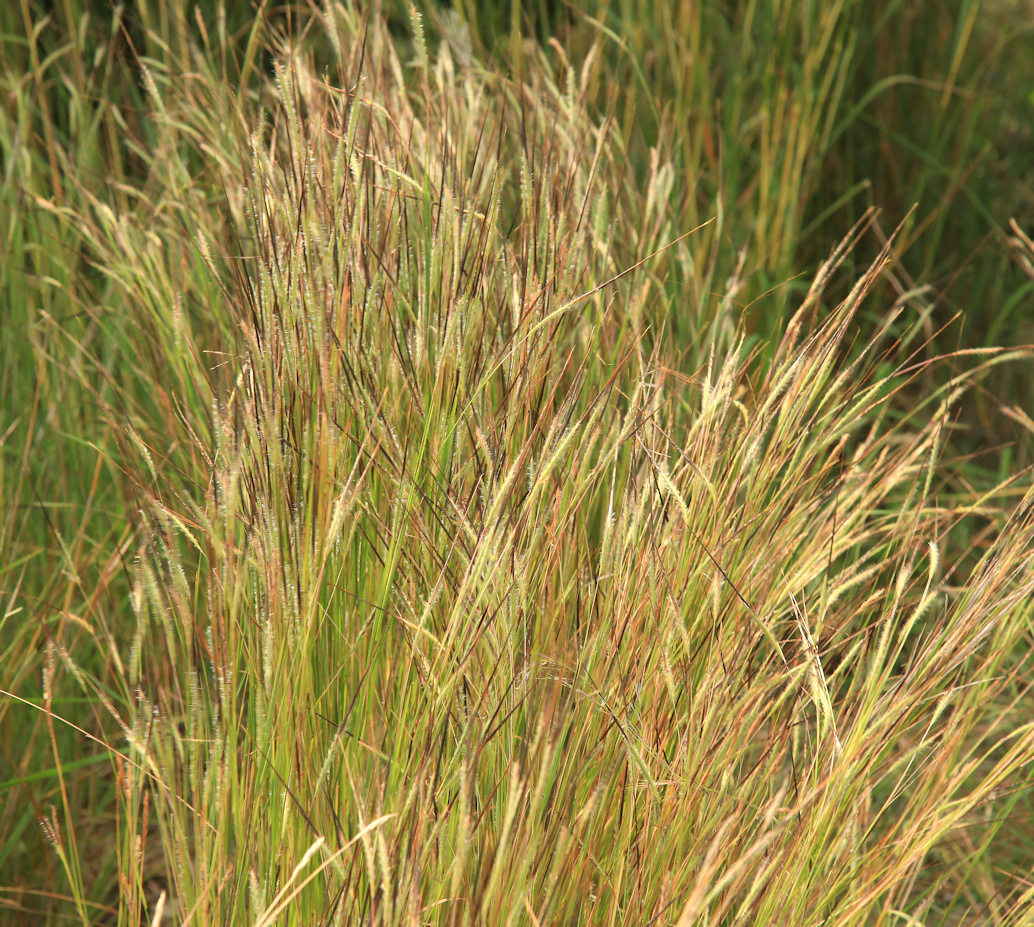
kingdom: Plantae
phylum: Tracheophyta
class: Liliopsida
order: Poales
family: Poaceae
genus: Heteropogon
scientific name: Heteropogon contortus
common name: Tanglehead
